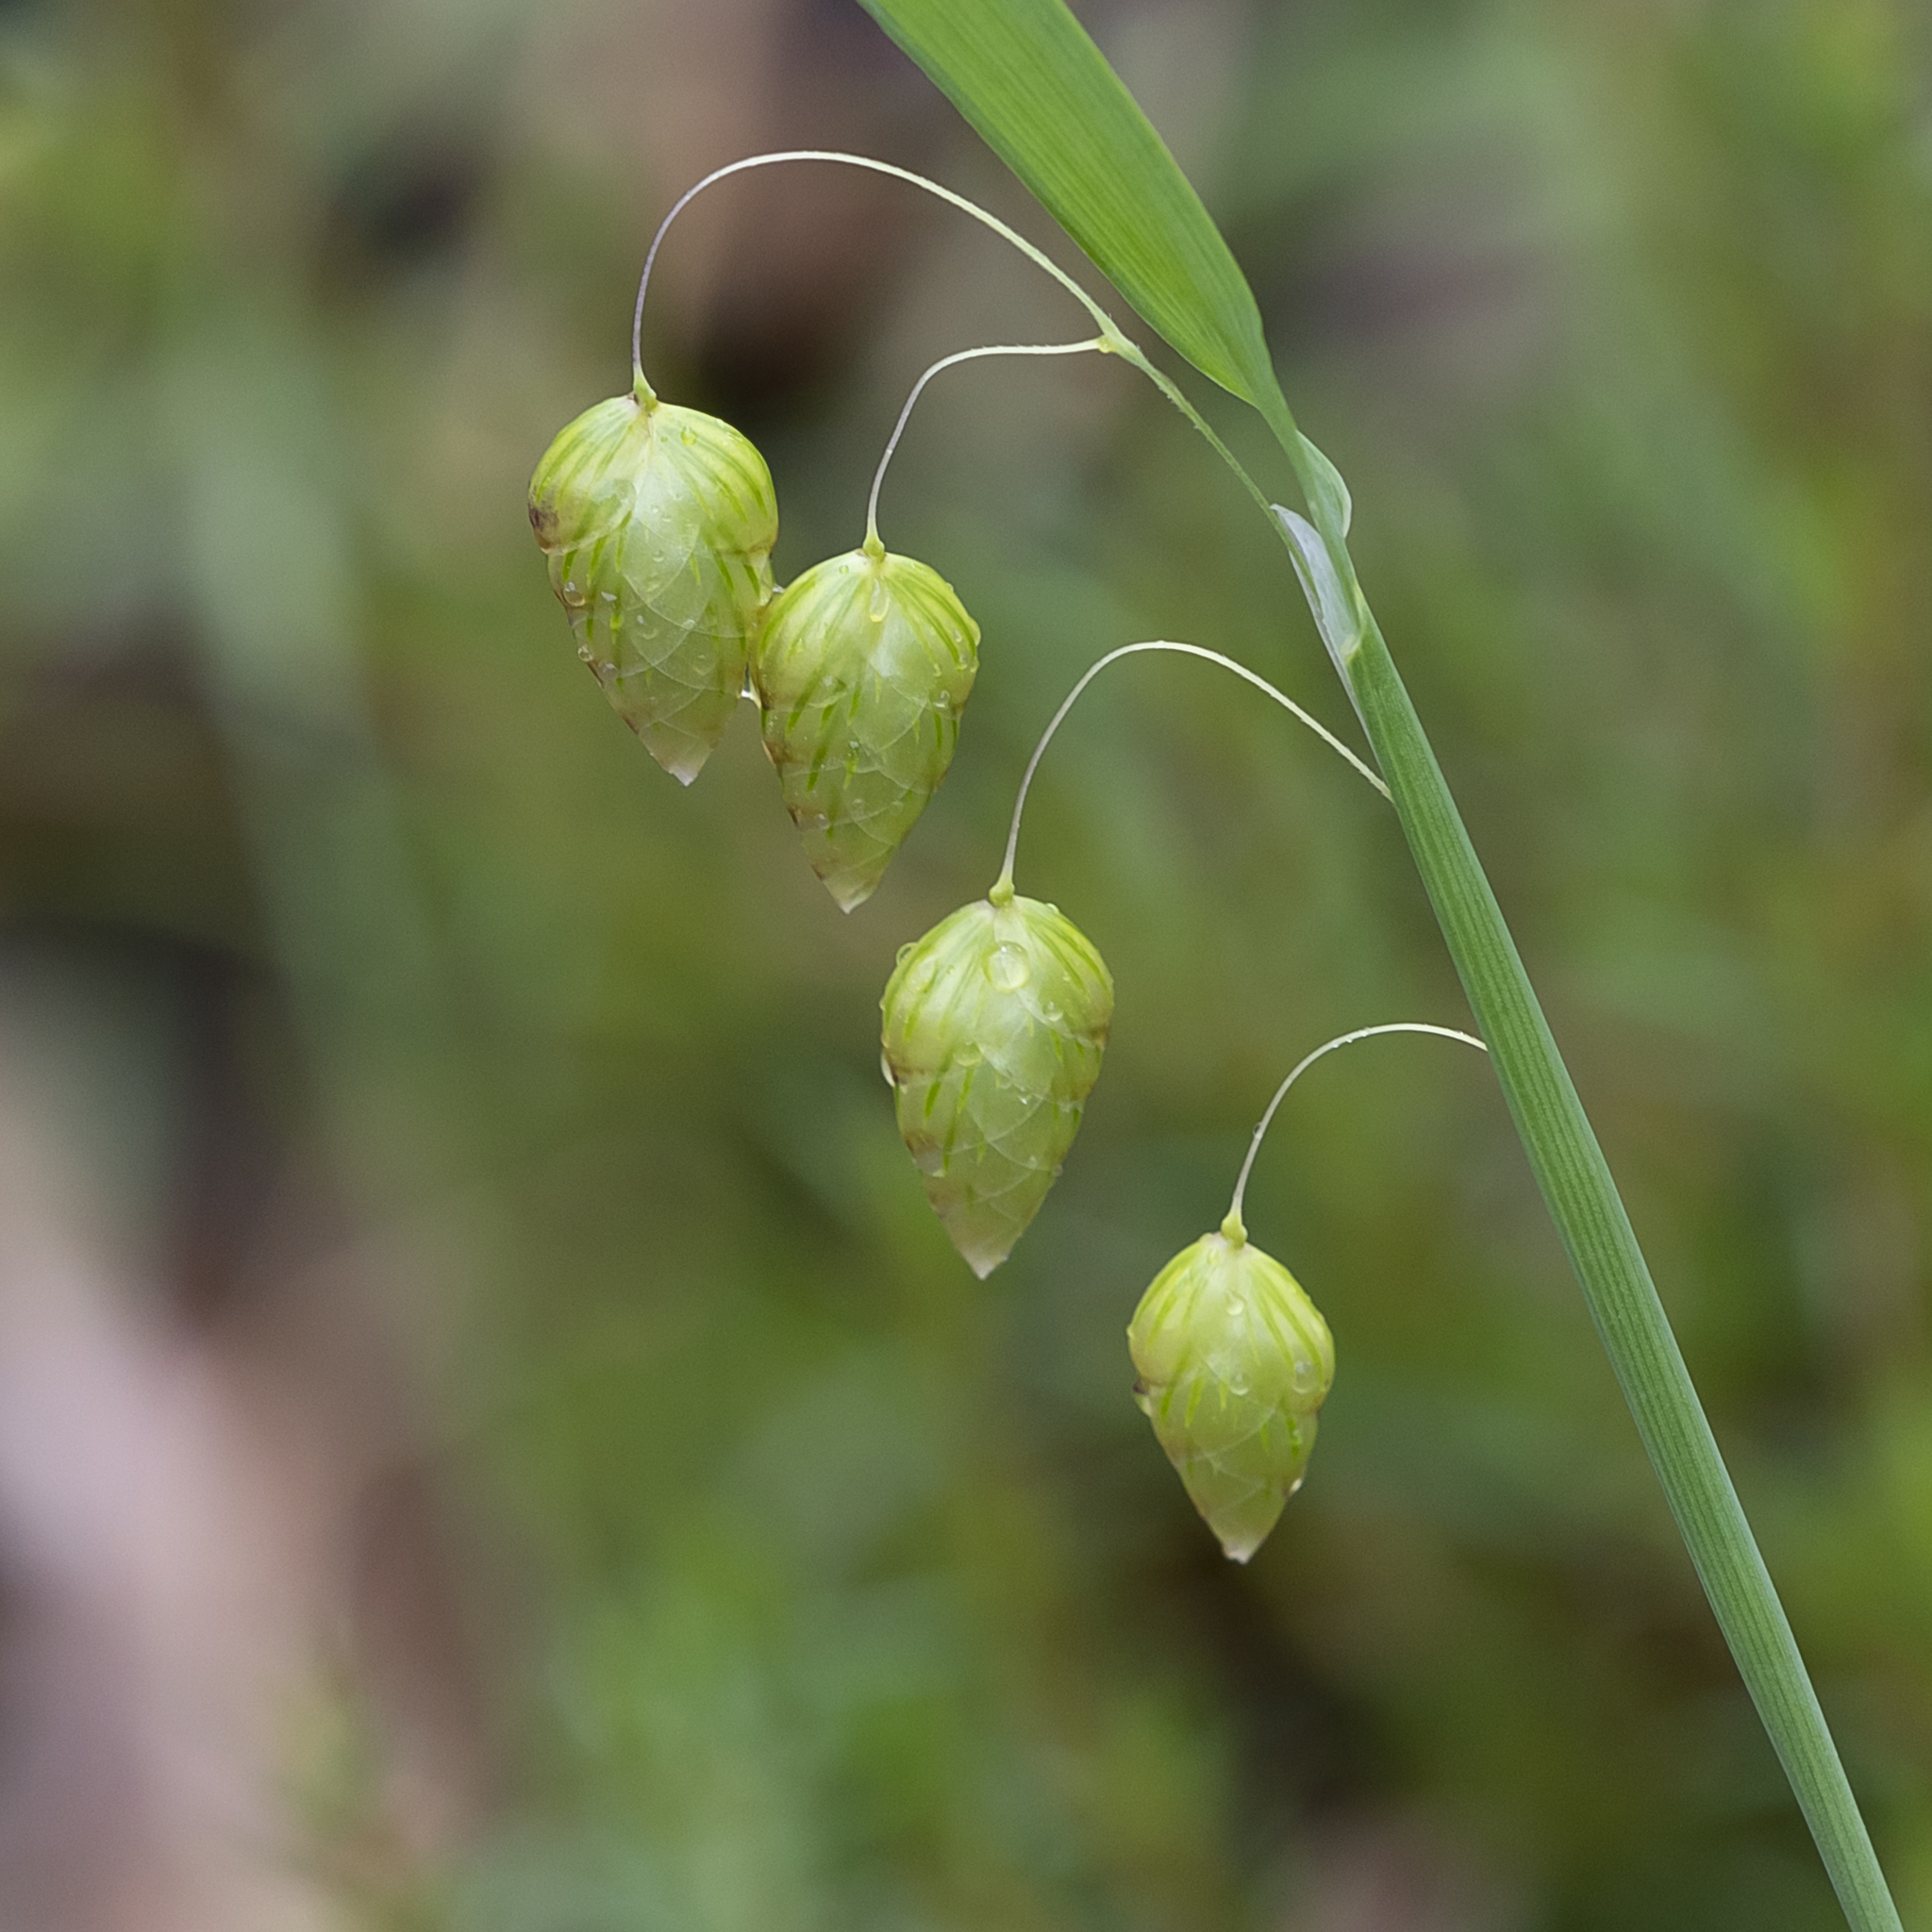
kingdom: Plantae
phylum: Tracheophyta
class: Liliopsida
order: Poales
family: Poaceae
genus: Briza
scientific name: Briza maxima
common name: Big quakinggrass
